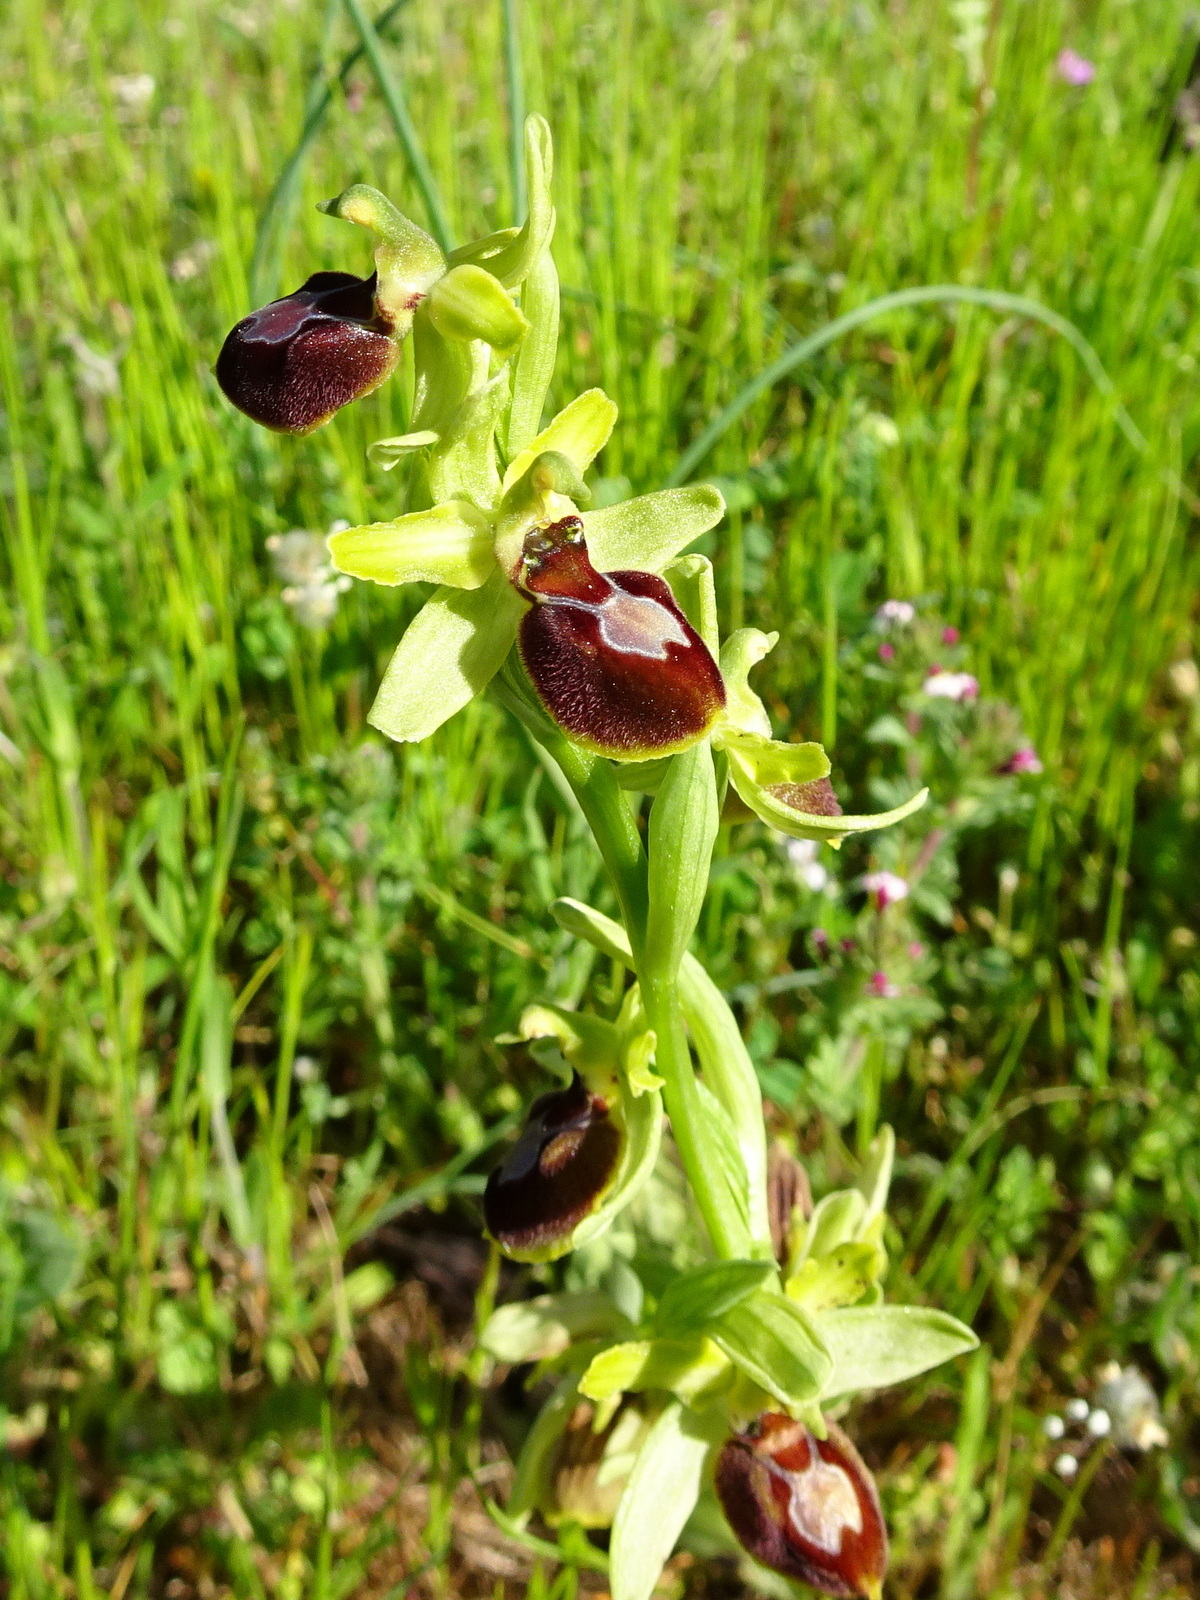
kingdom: Plantae
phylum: Tracheophyta
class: Liliopsida
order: Asparagales
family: Orchidaceae
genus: Ophrys
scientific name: Ophrys sphegodes
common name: Early spider-orchid
